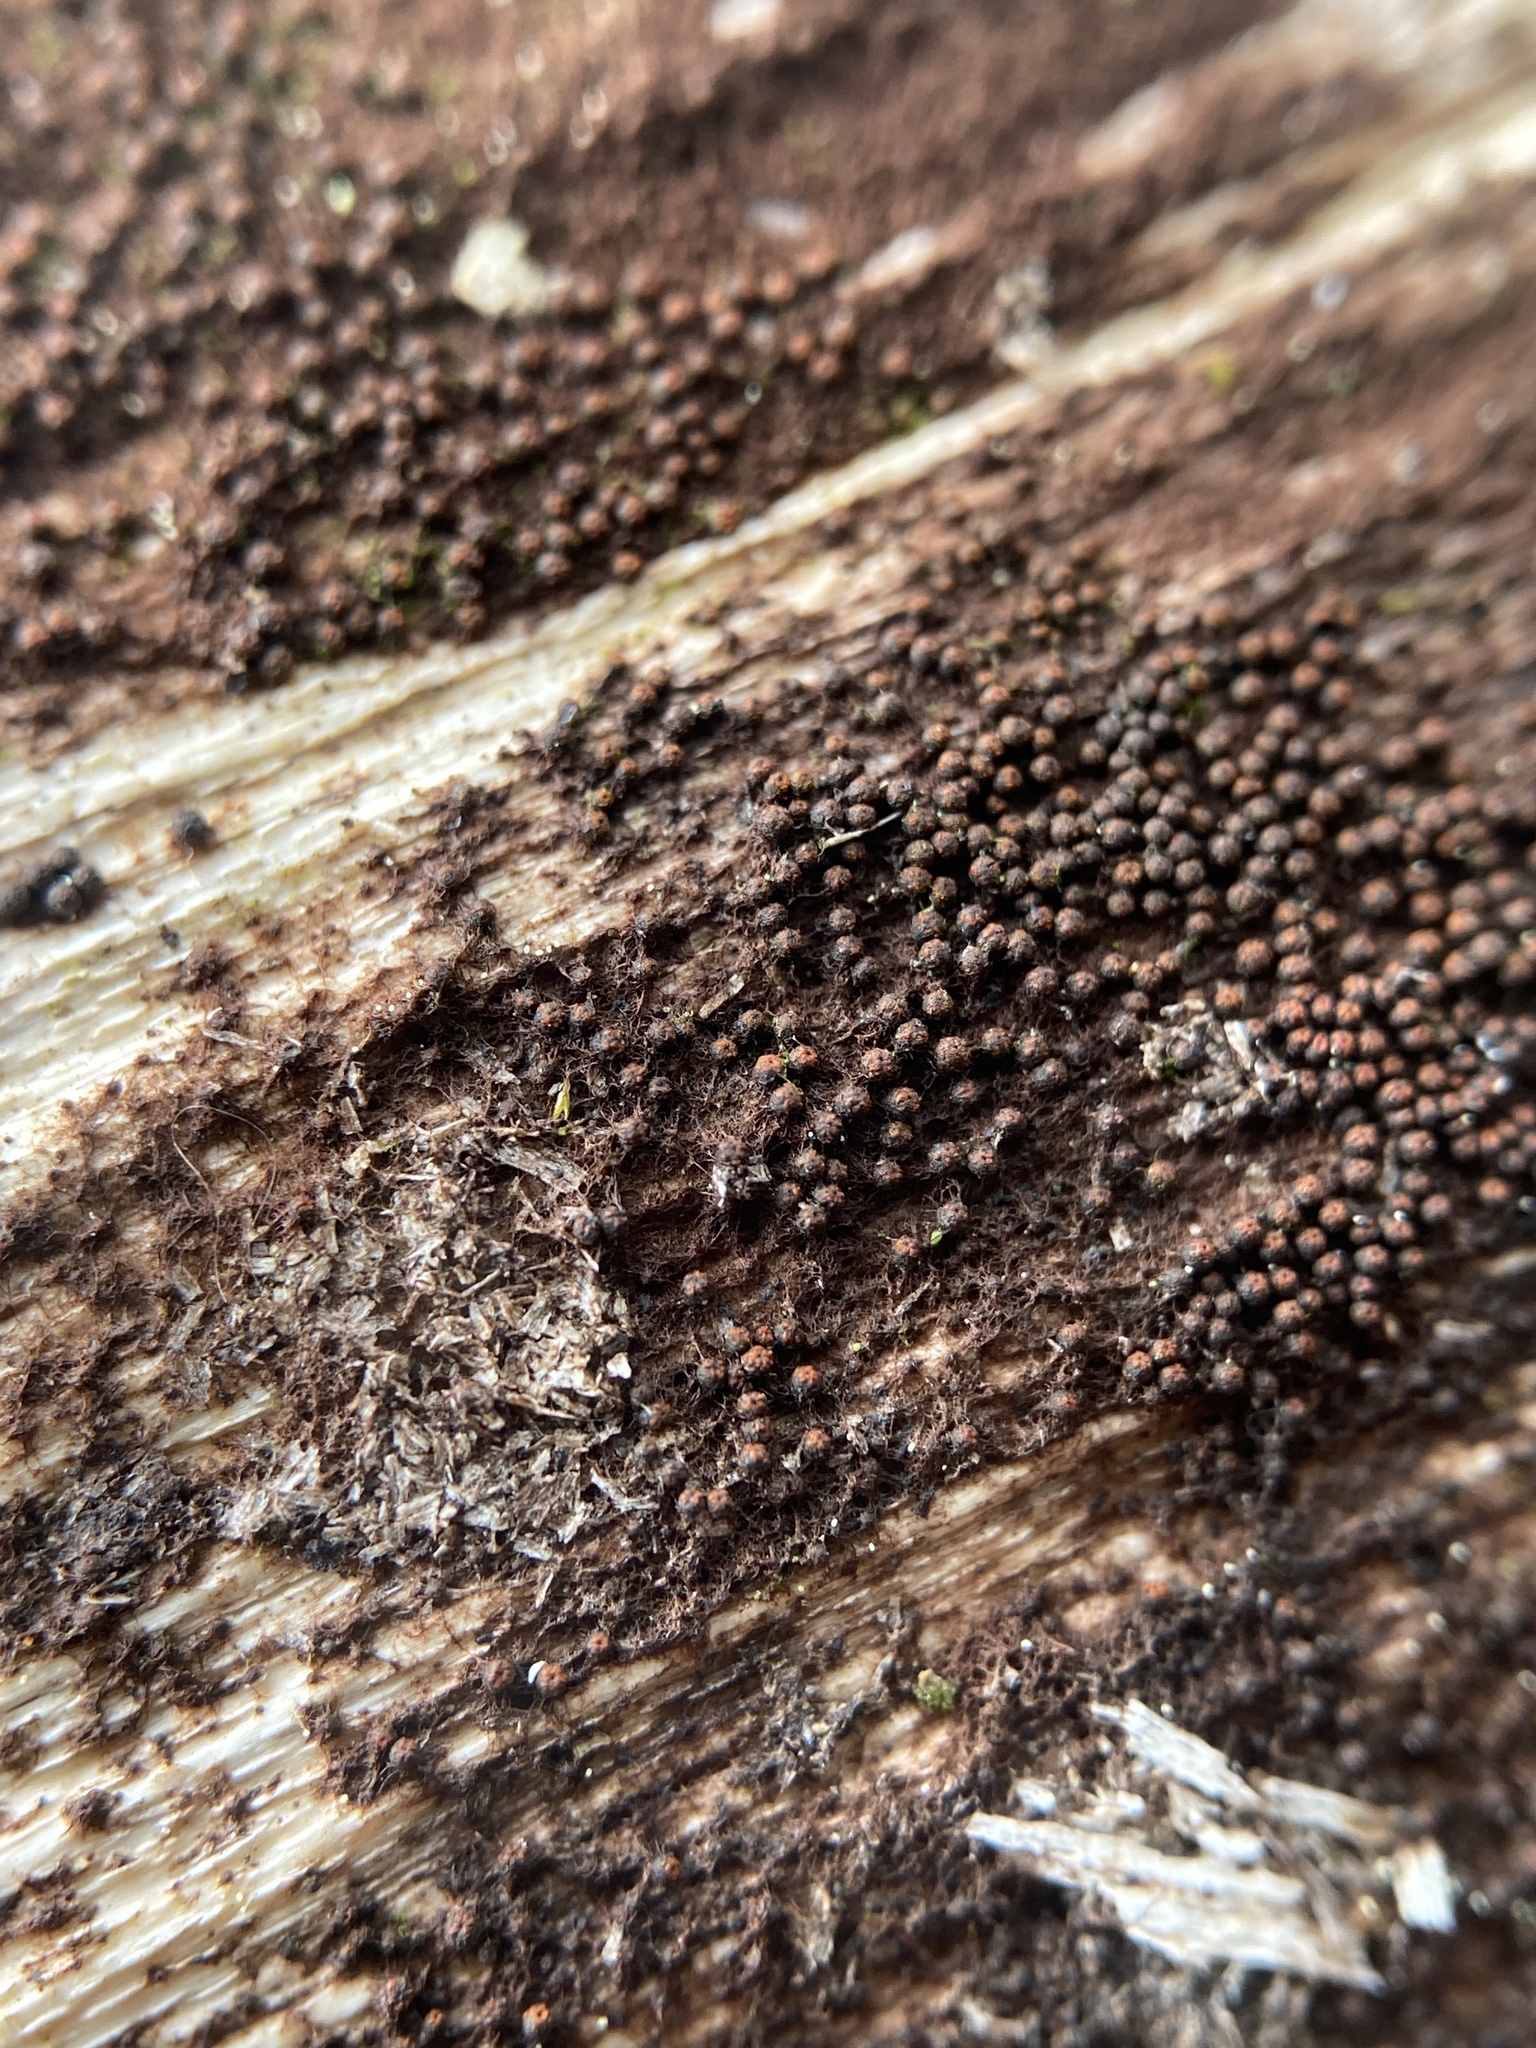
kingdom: Fungi
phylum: Ascomycota
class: Dothideomycetes
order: Pleosporales
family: Melanommataceae
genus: Byssosphaeria
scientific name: Byssosphaeria rhodomphala
